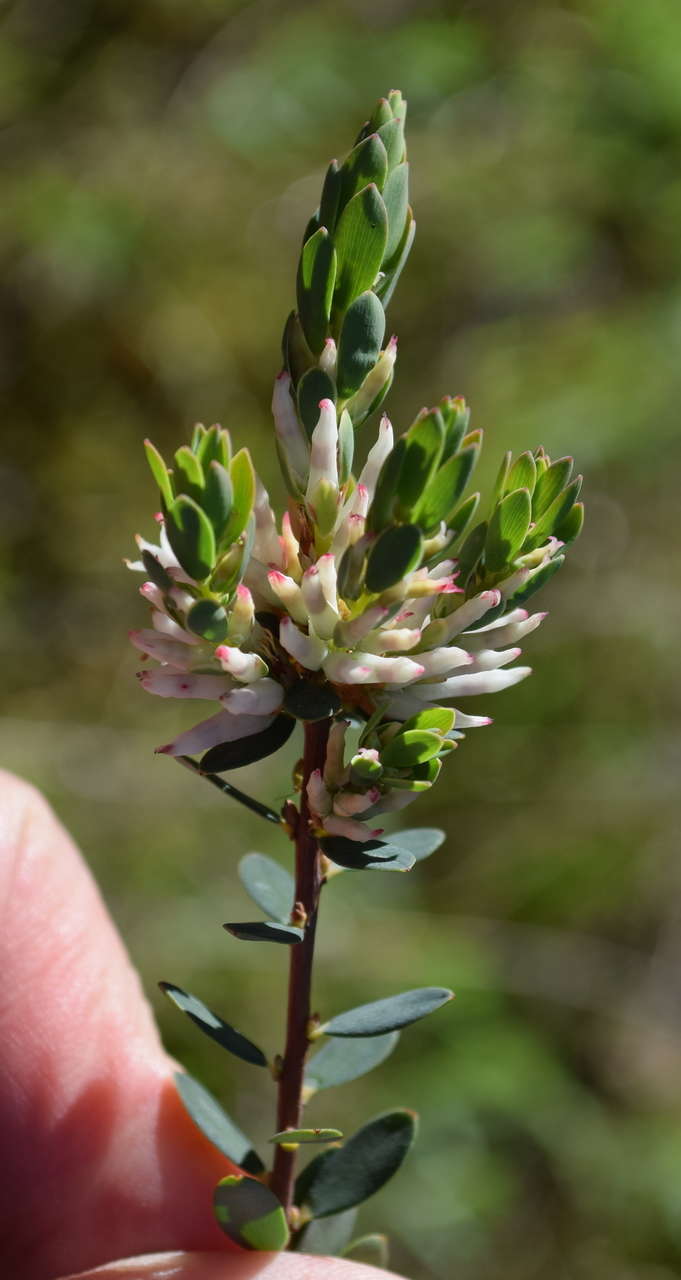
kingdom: Plantae
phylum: Tracheophyta
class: Magnoliopsida
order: Ericales
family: Ericaceae
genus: Brachyloma
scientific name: Brachyloma daphnoides
